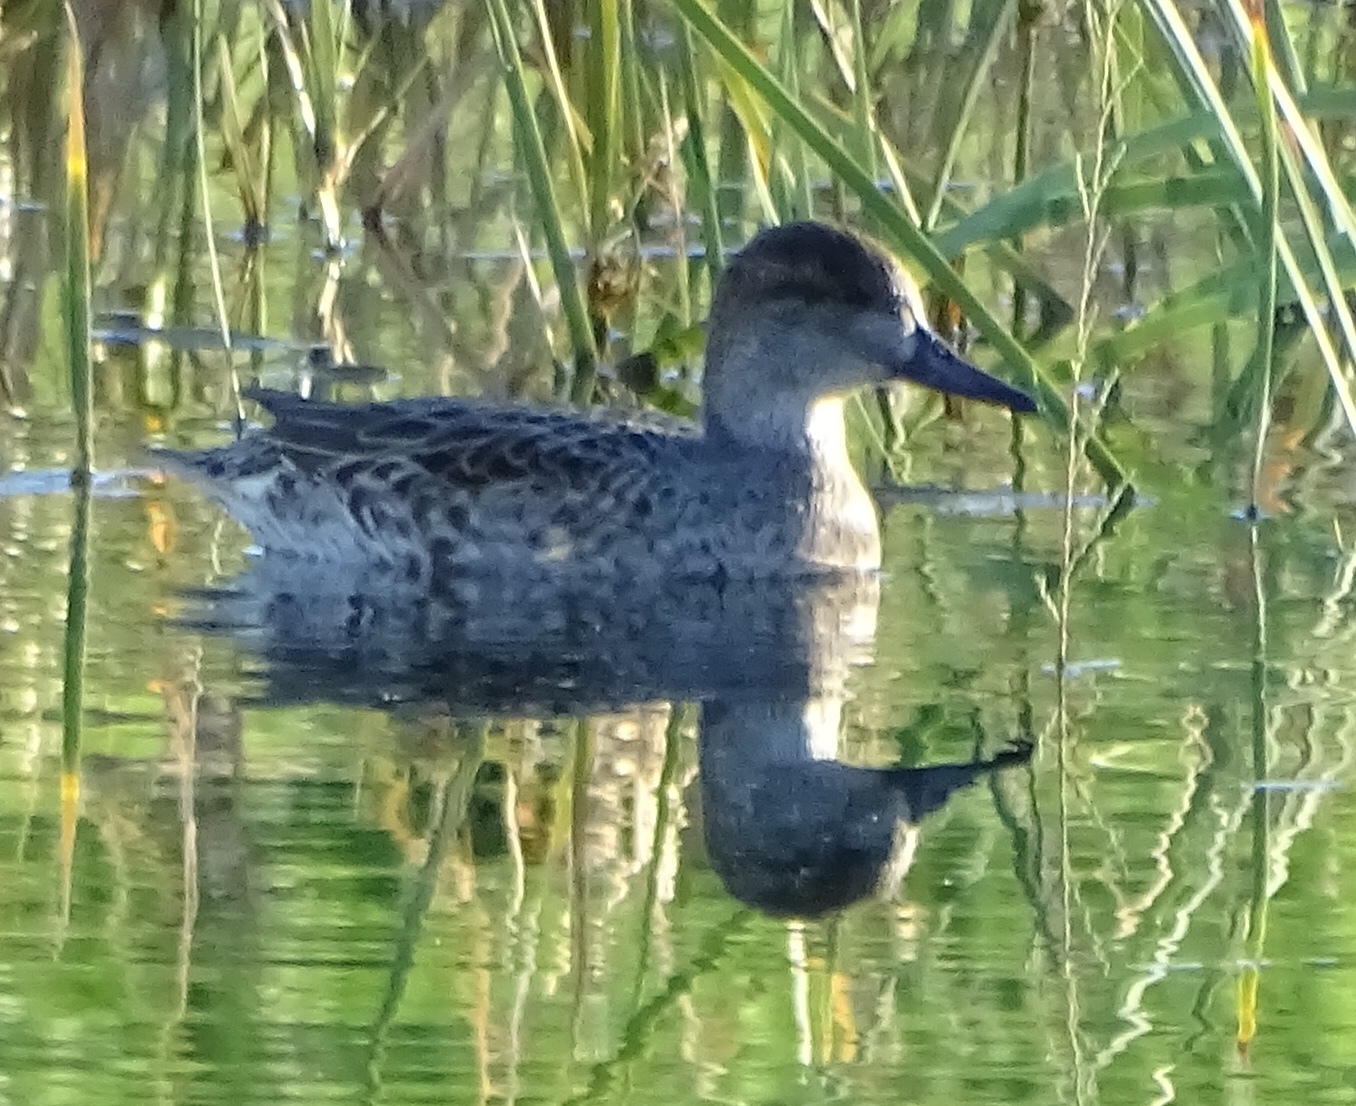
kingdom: Animalia
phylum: Chordata
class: Aves
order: Anseriformes
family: Anatidae
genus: Anas
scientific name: Anas crecca
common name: Eurasian teal
